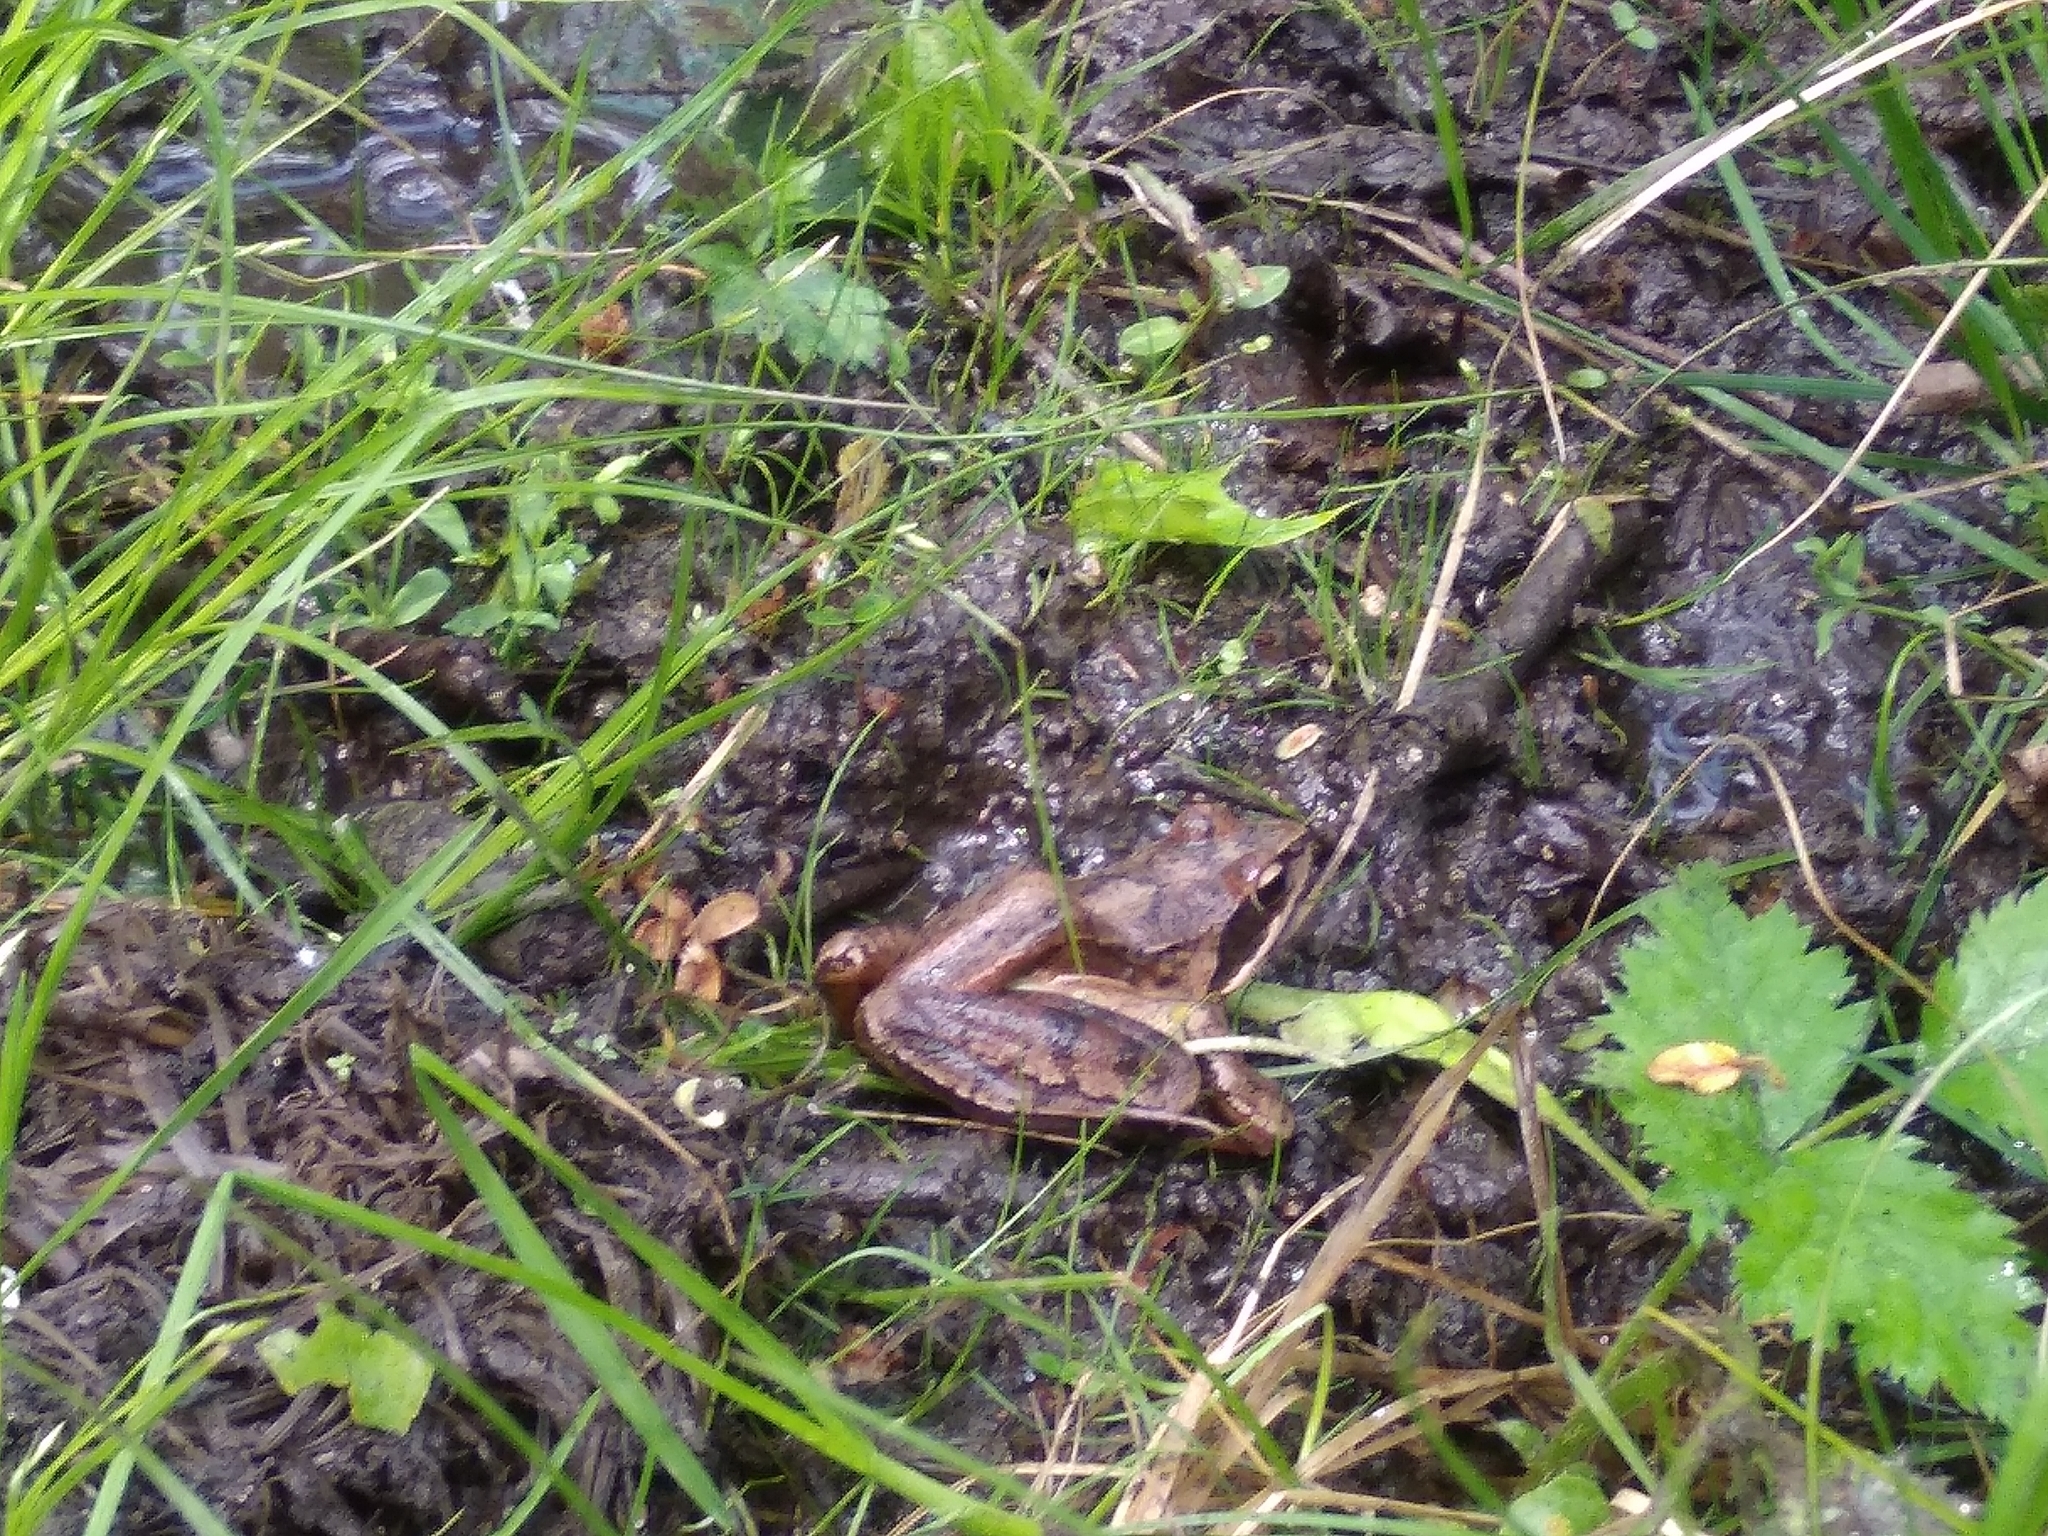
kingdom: Animalia
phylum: Chordata
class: Amphibia
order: Anura
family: Ranidae
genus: Rana
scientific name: Rana dalmatina
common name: Agile frog
